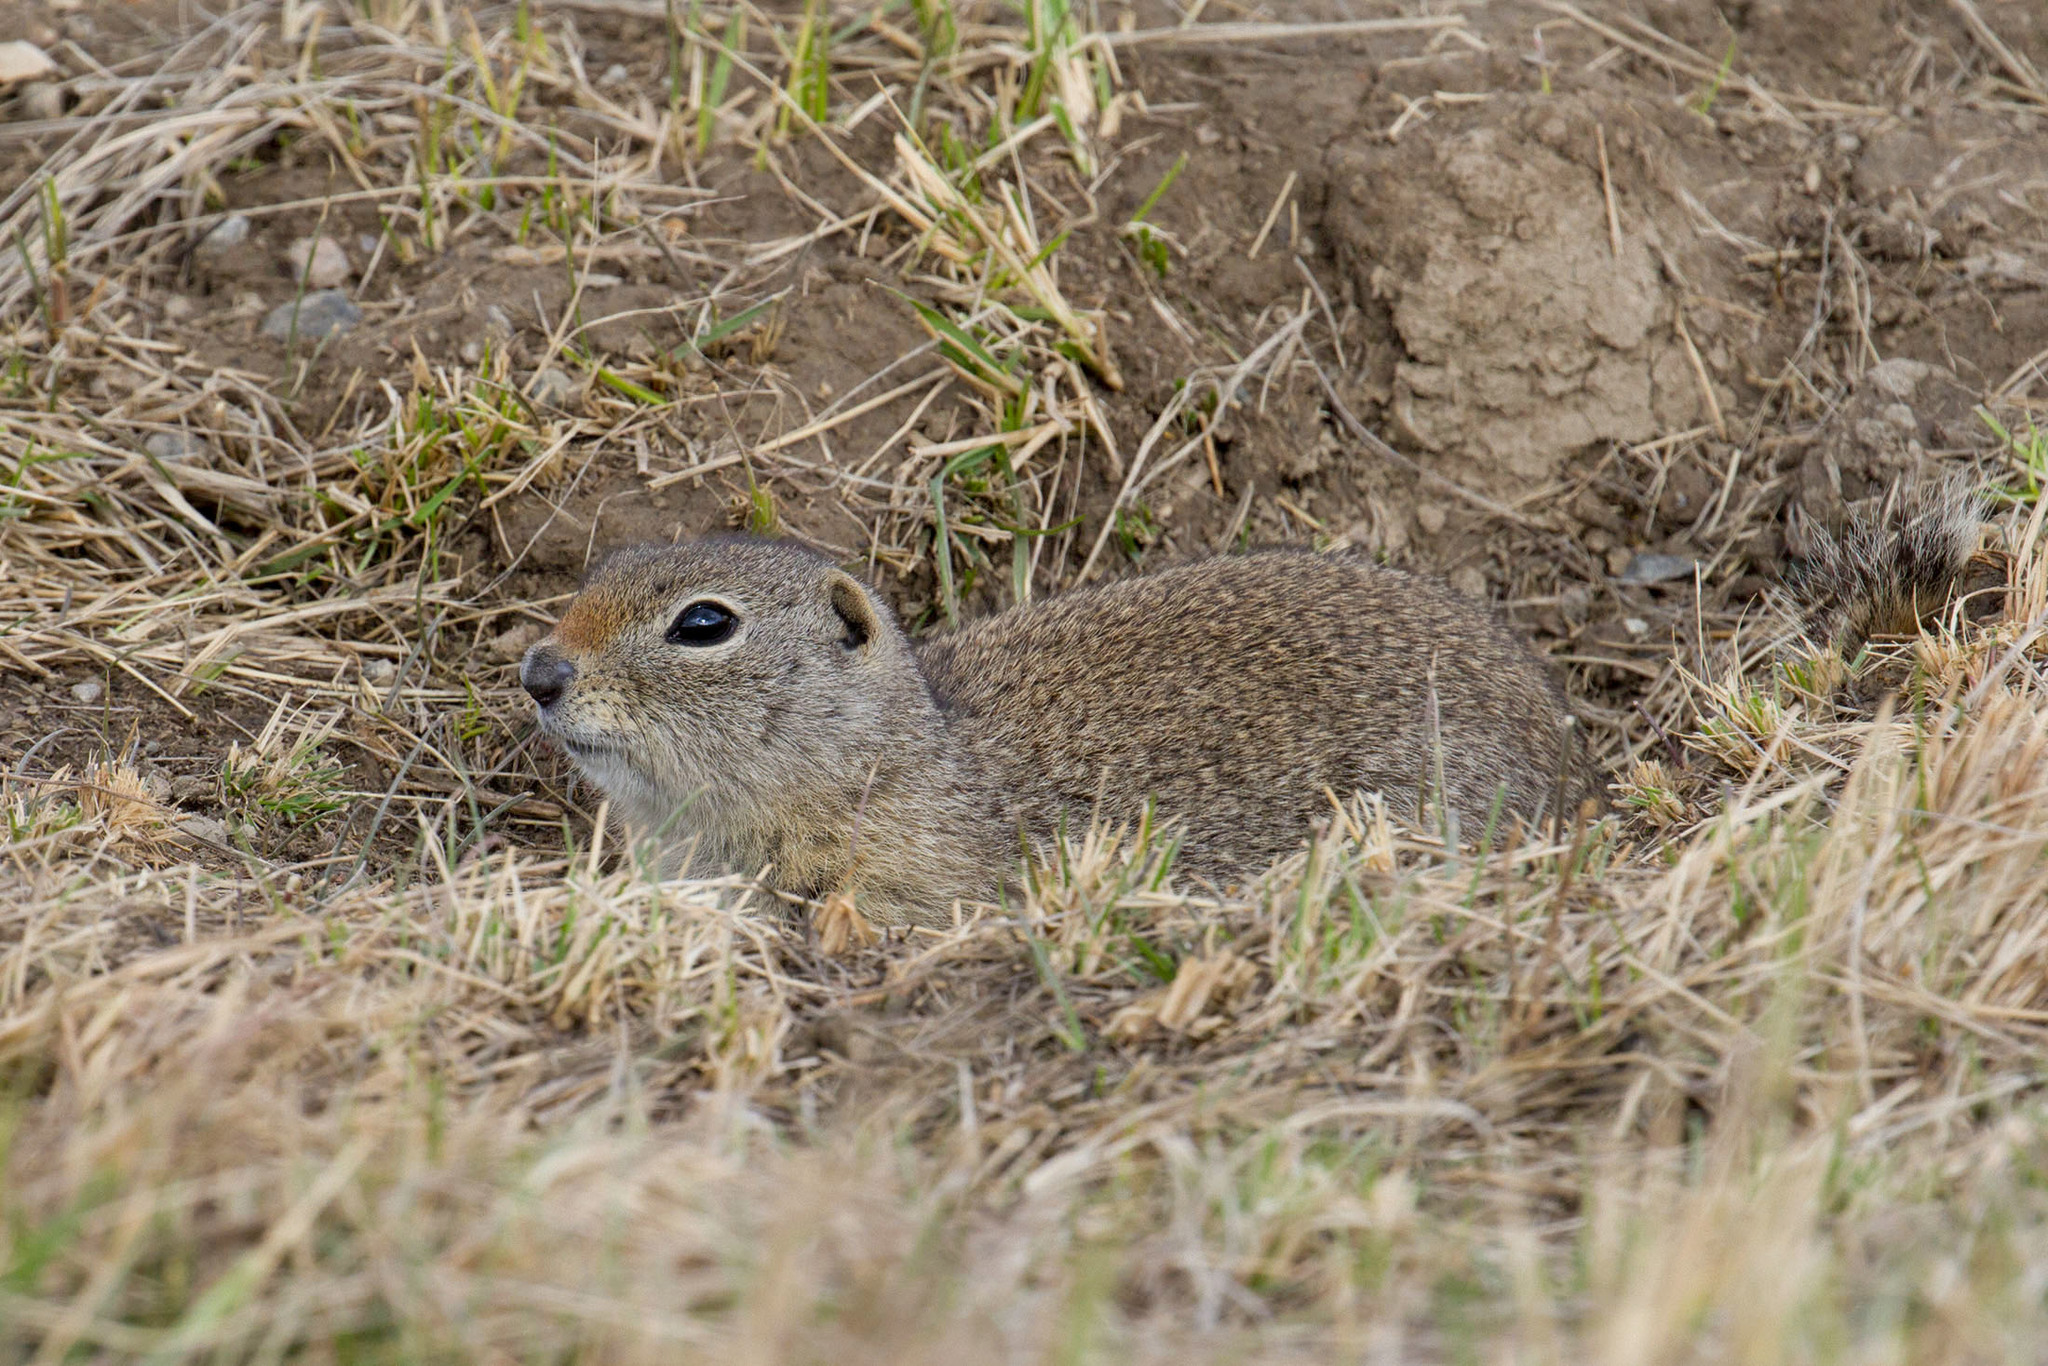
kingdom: Animalia
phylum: Chordata
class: Mammalia
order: Rodentia
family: Sciuridae
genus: Urocitellus
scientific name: Urocitellus elegans
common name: Wyoming ground squirrel
